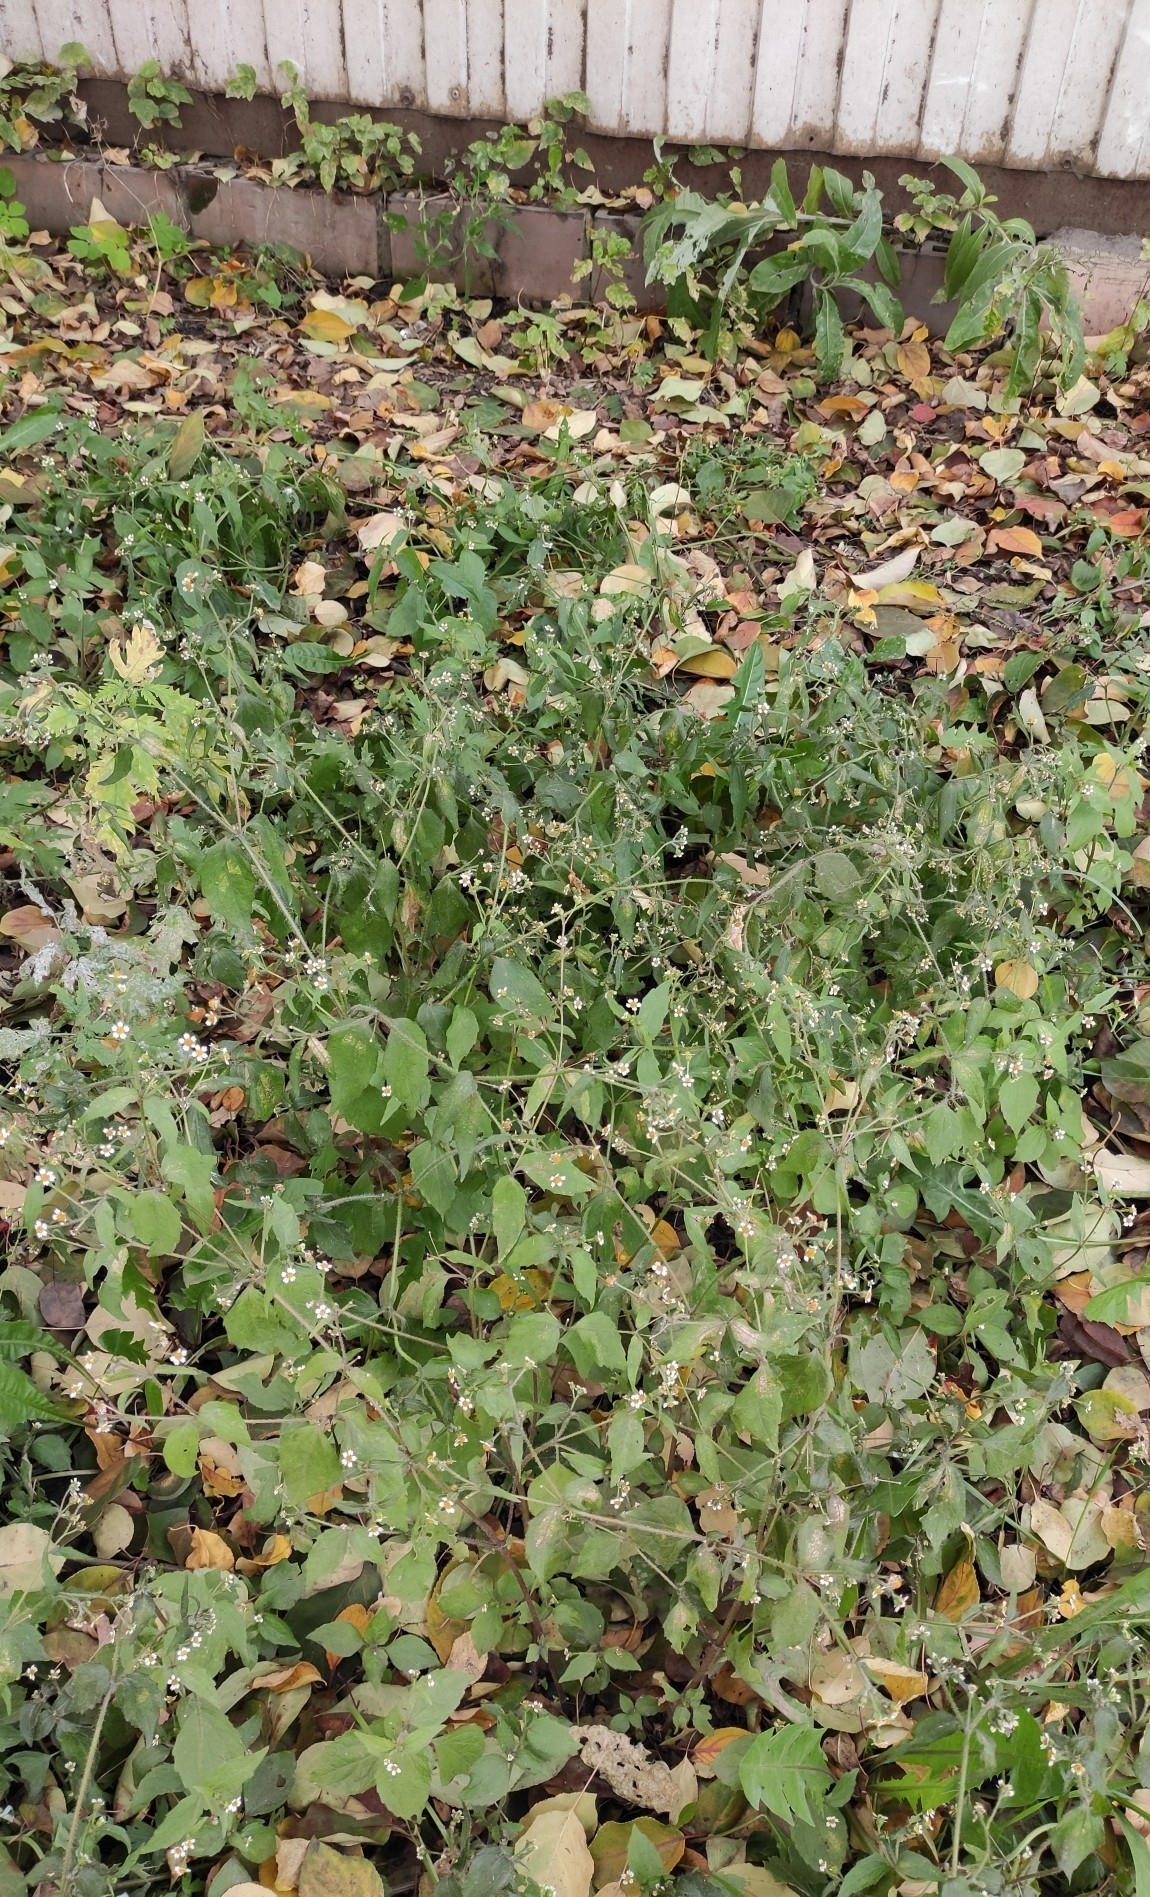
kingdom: Plantae
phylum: Tracheophyta
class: Magnoliopsida
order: Asterales
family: Asteraceae
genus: Galinsoga
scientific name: Galinsoga quadriradiata
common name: Shaggy soldier
